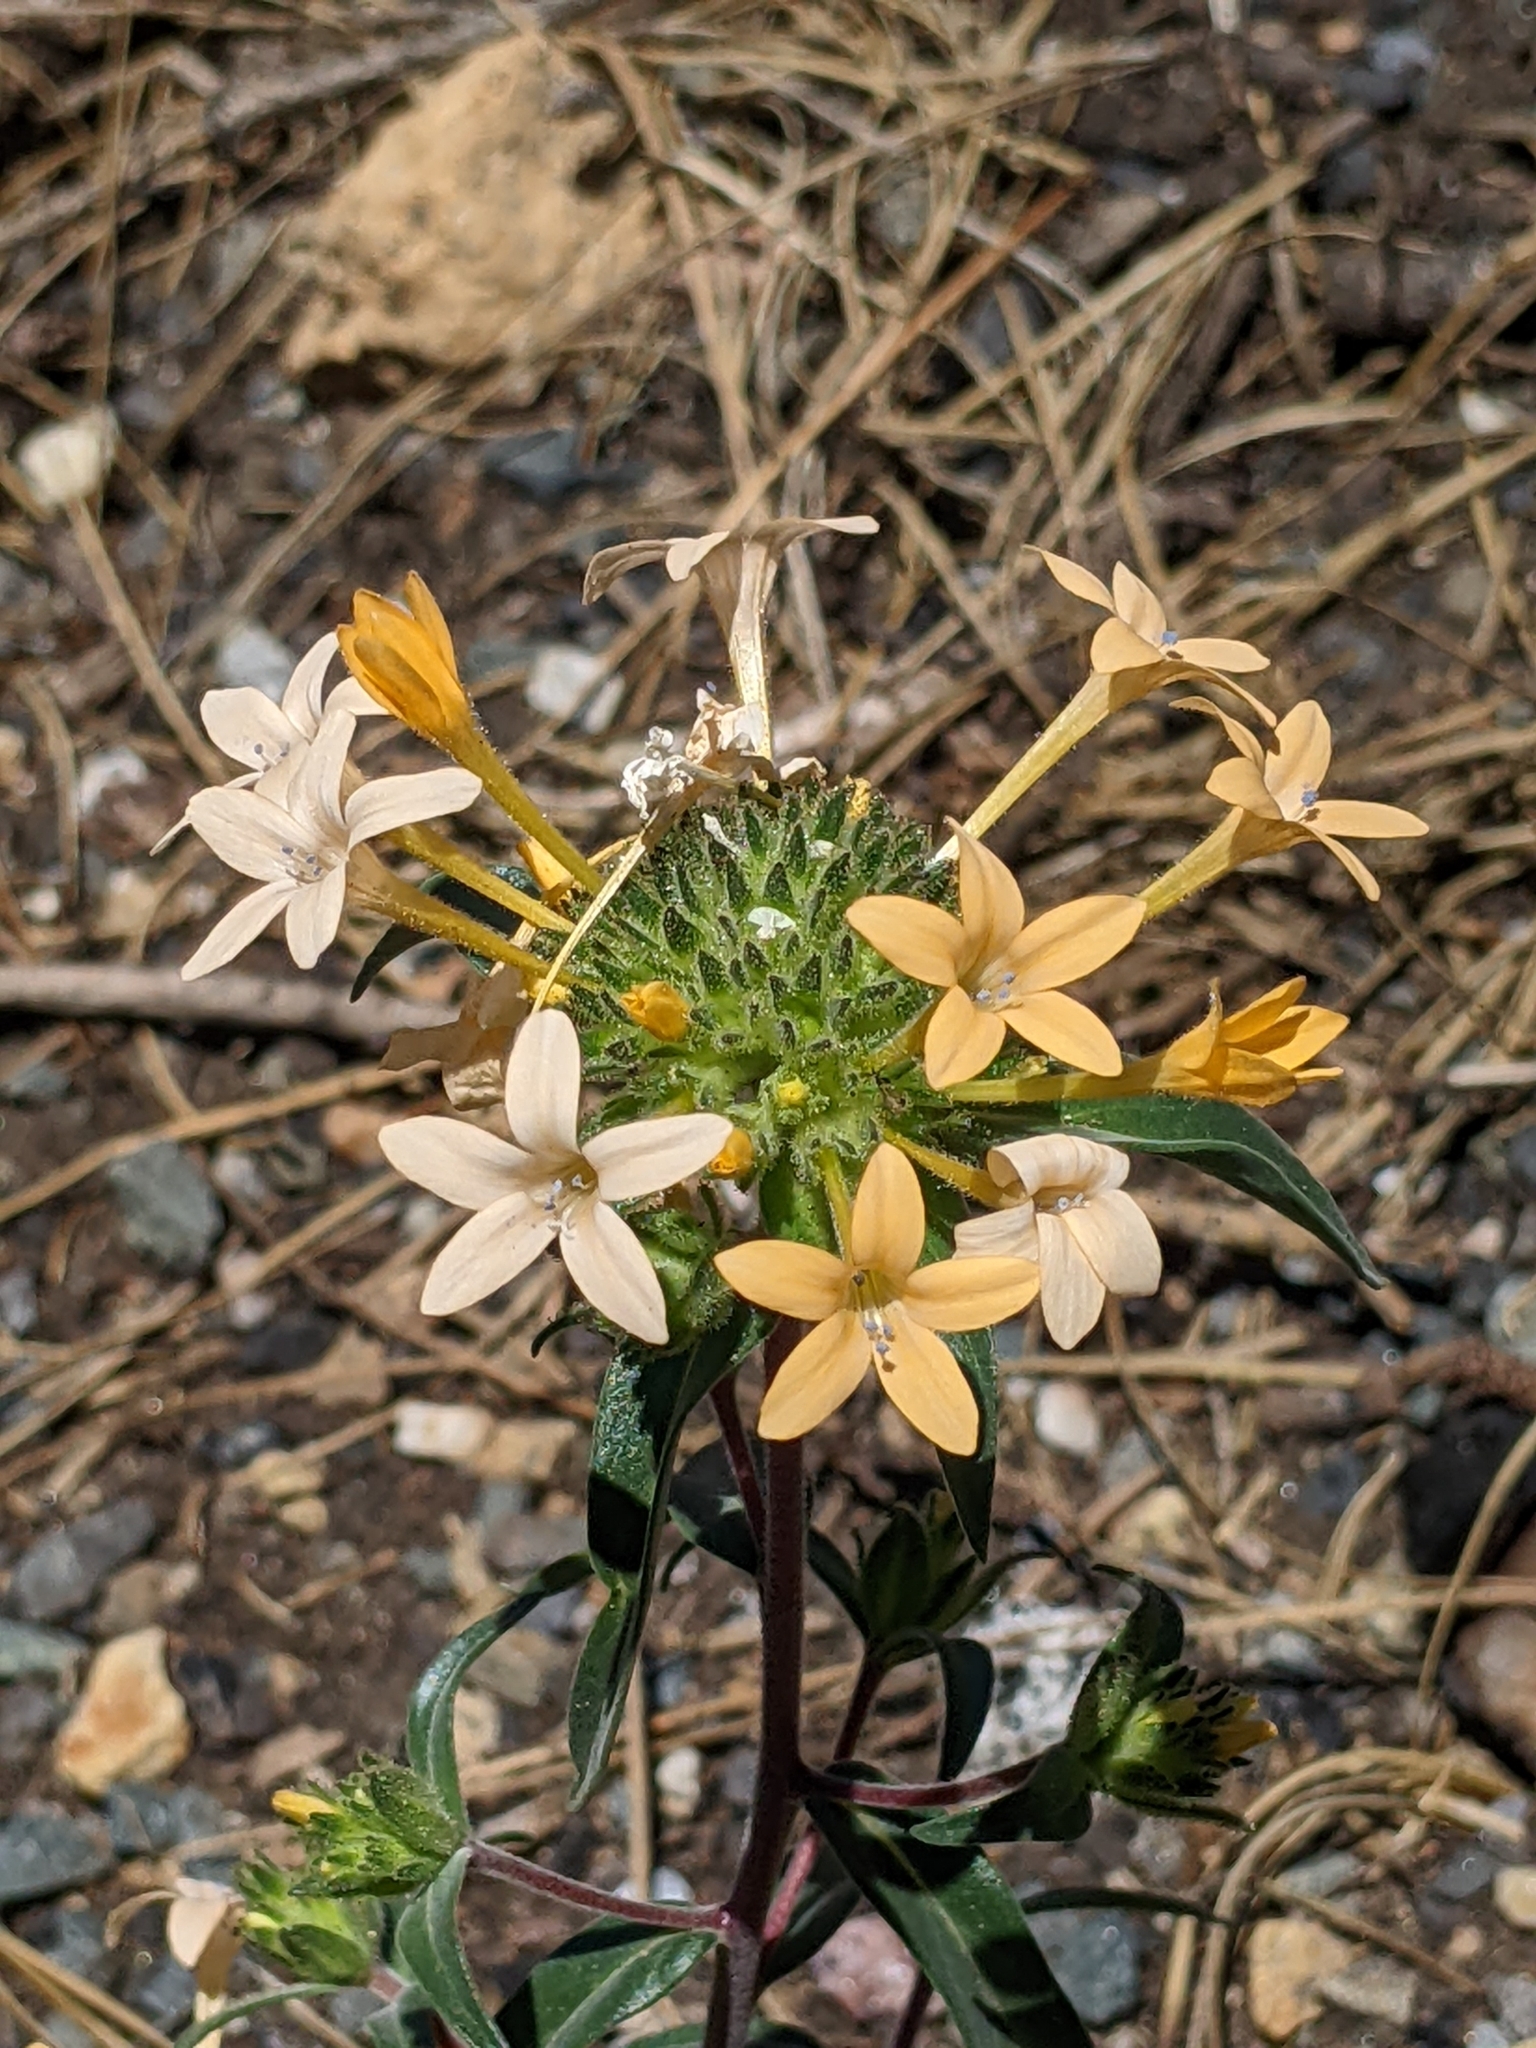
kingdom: Plantae
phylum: Tracheophyta
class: Magnoliopsida
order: Ericales
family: Polemoniaceae
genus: Collomia
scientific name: Collomia grandiflora
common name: California strawflower
